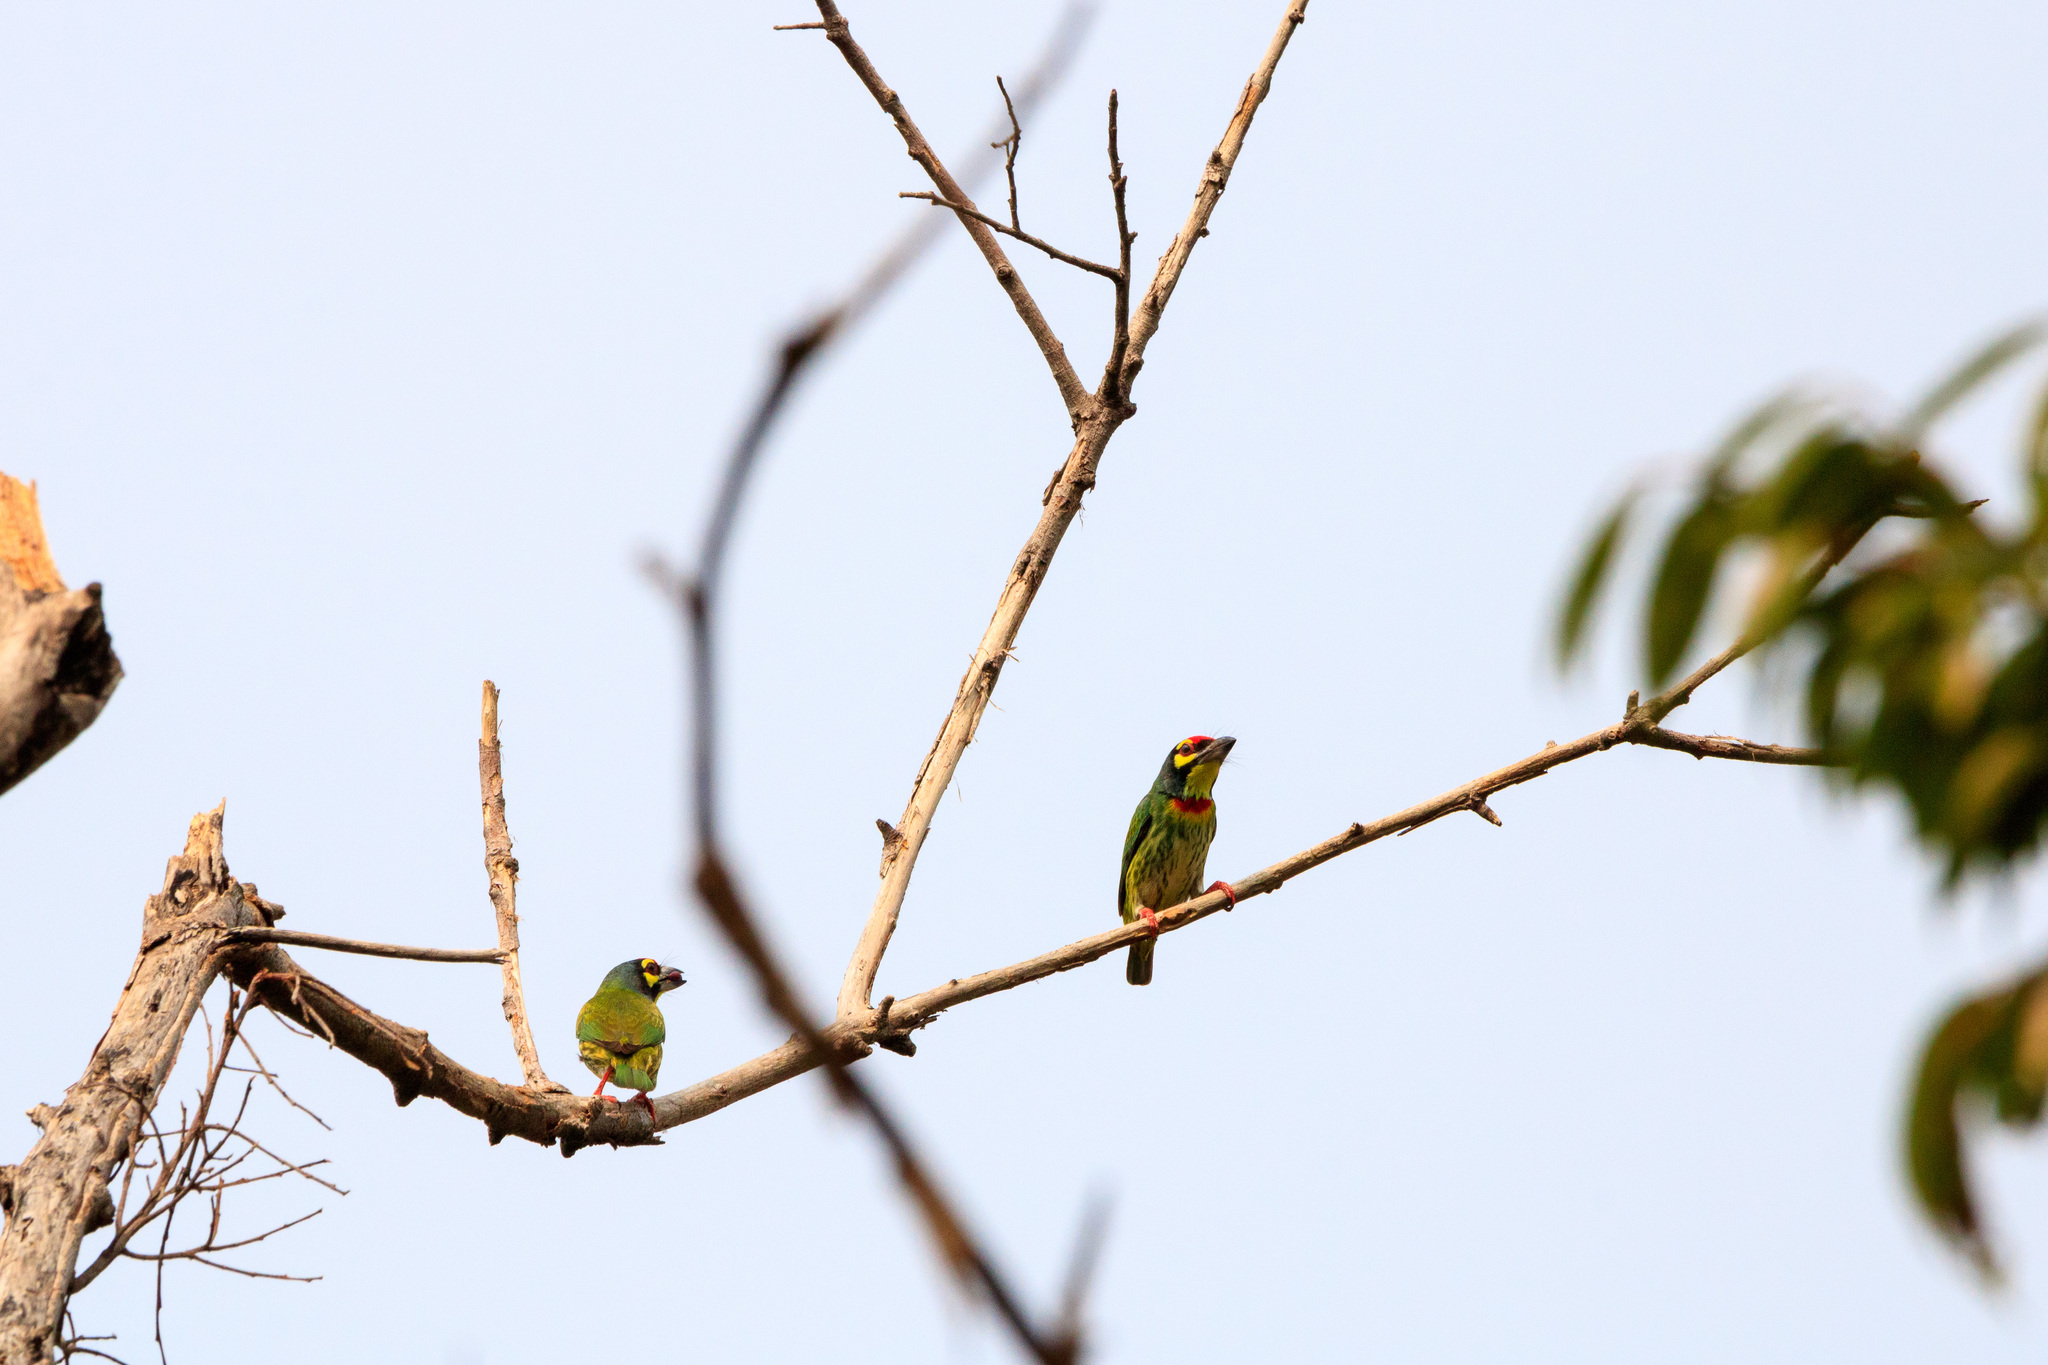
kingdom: Animalia
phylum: Chordata
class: Aves
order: Piciformes
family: Megalaimidae
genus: Psilopogon
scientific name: Psilopogon haemacephalus
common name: Coppersmith barbet
